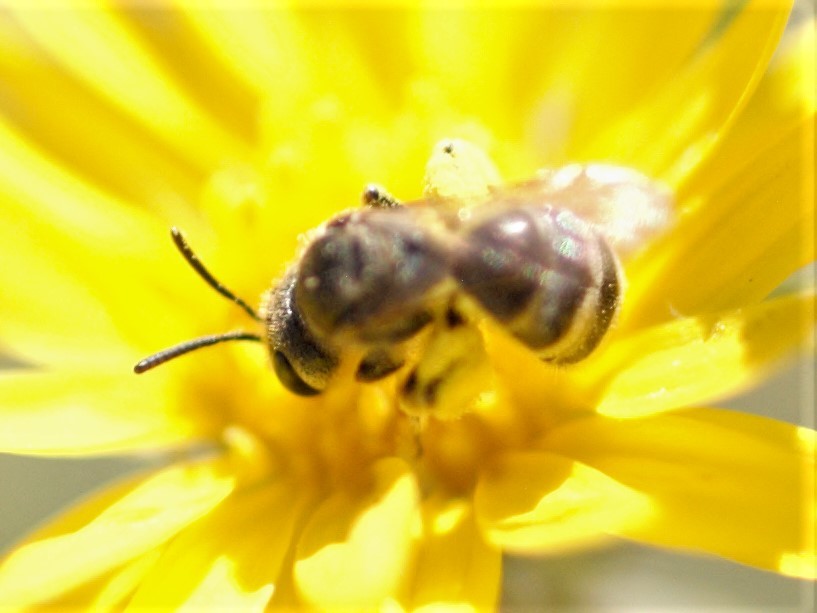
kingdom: Animalia
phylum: Arthropoda
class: Insecta
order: Hymenoptera
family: Halictidae
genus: Seladonia
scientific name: Seladonia
